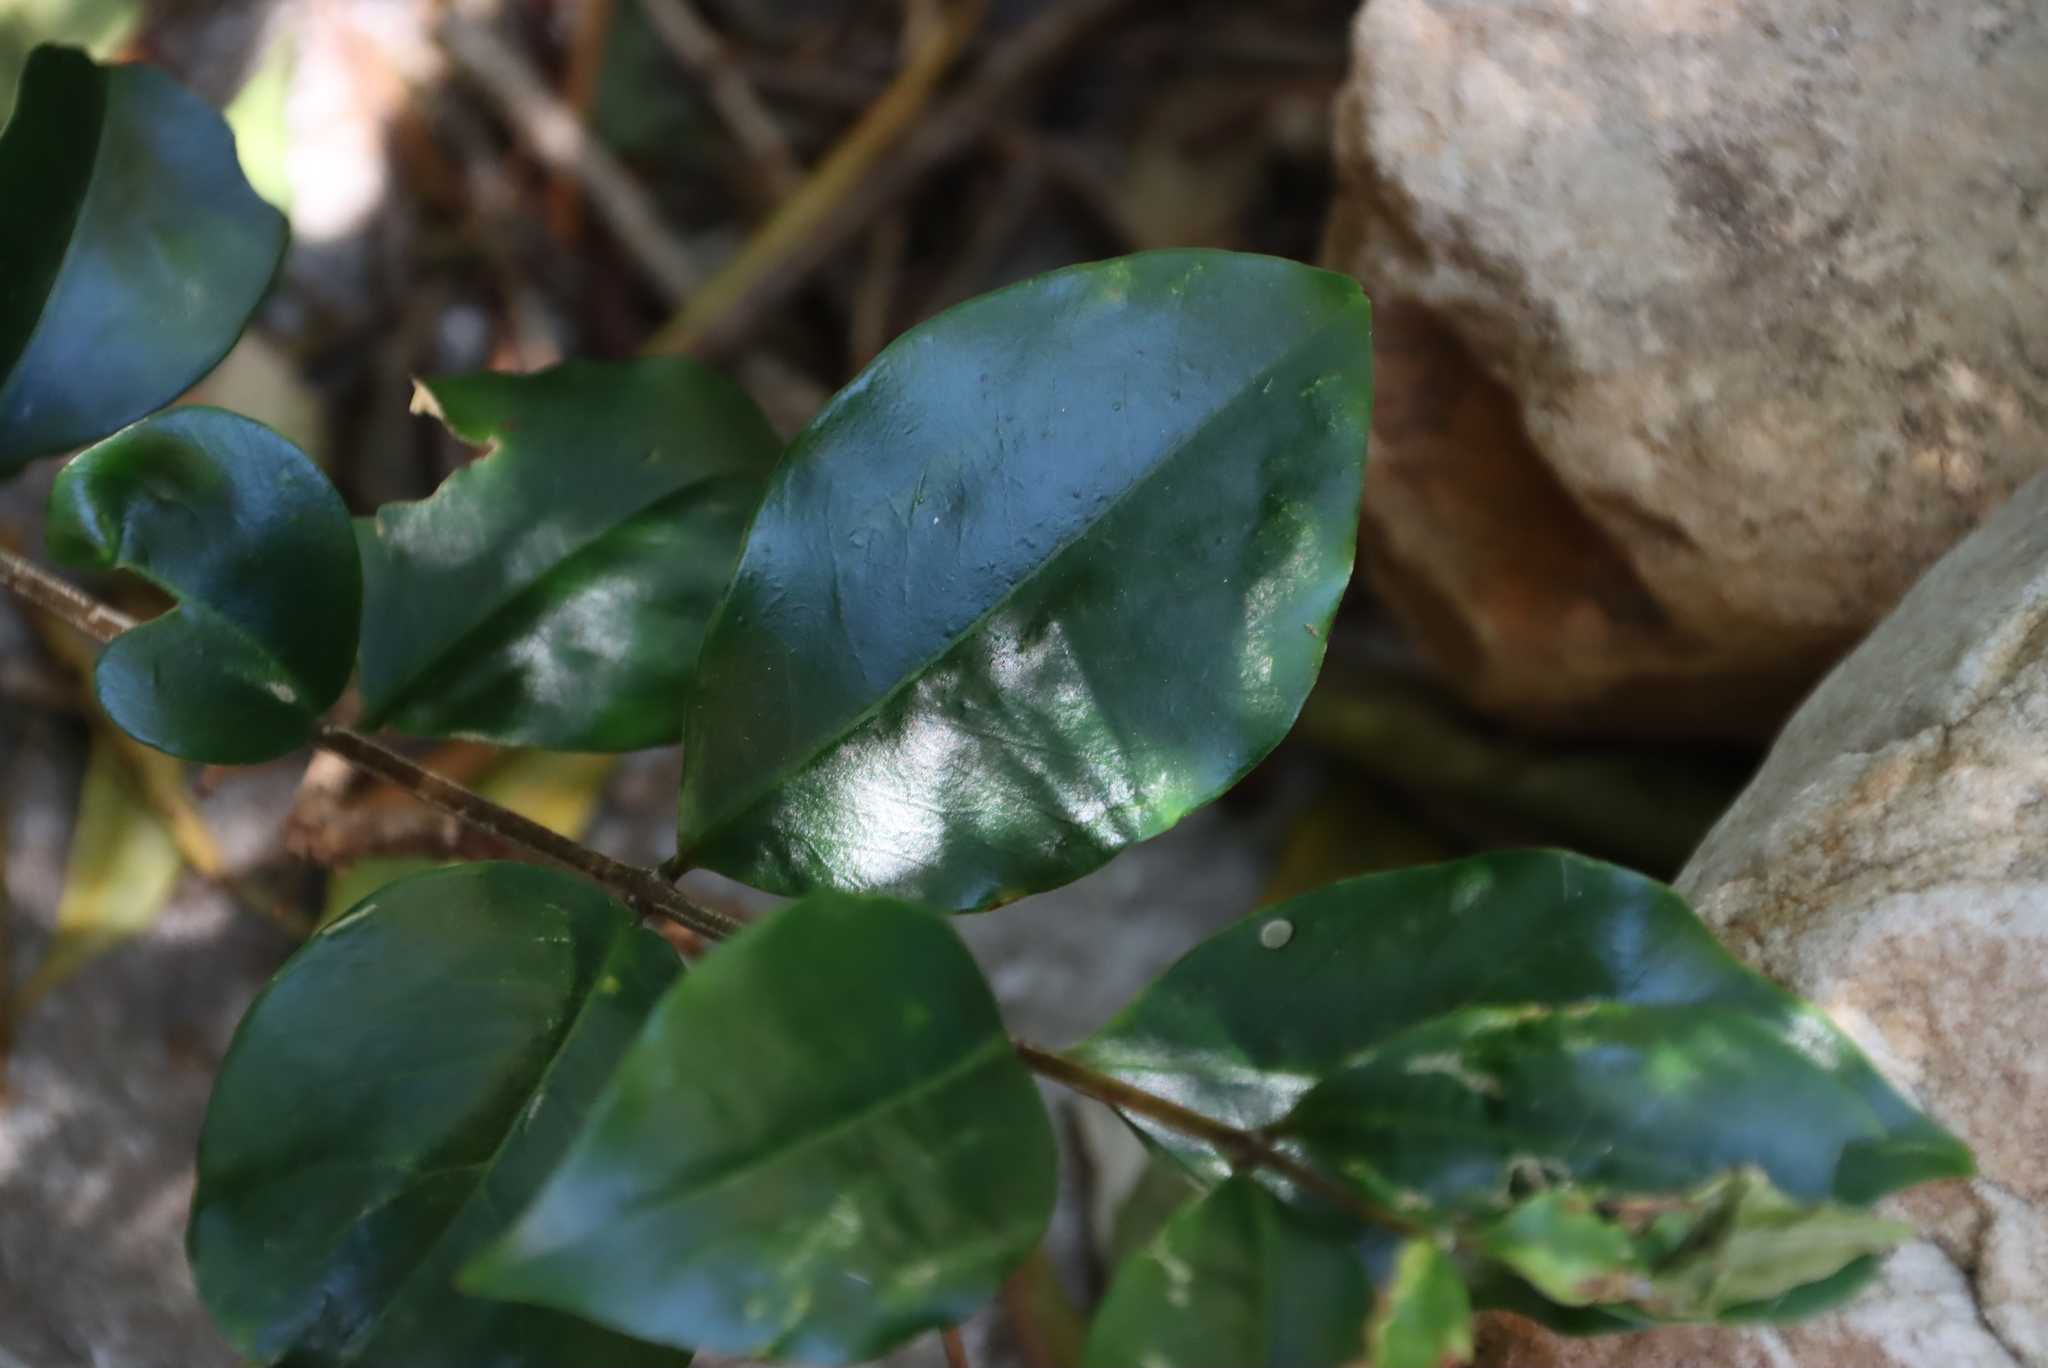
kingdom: Plantae
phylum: Tracheophyta
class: Magnoliopsida
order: Myrtales
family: Penaeaceae
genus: Olinia
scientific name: Olinia ventosa
